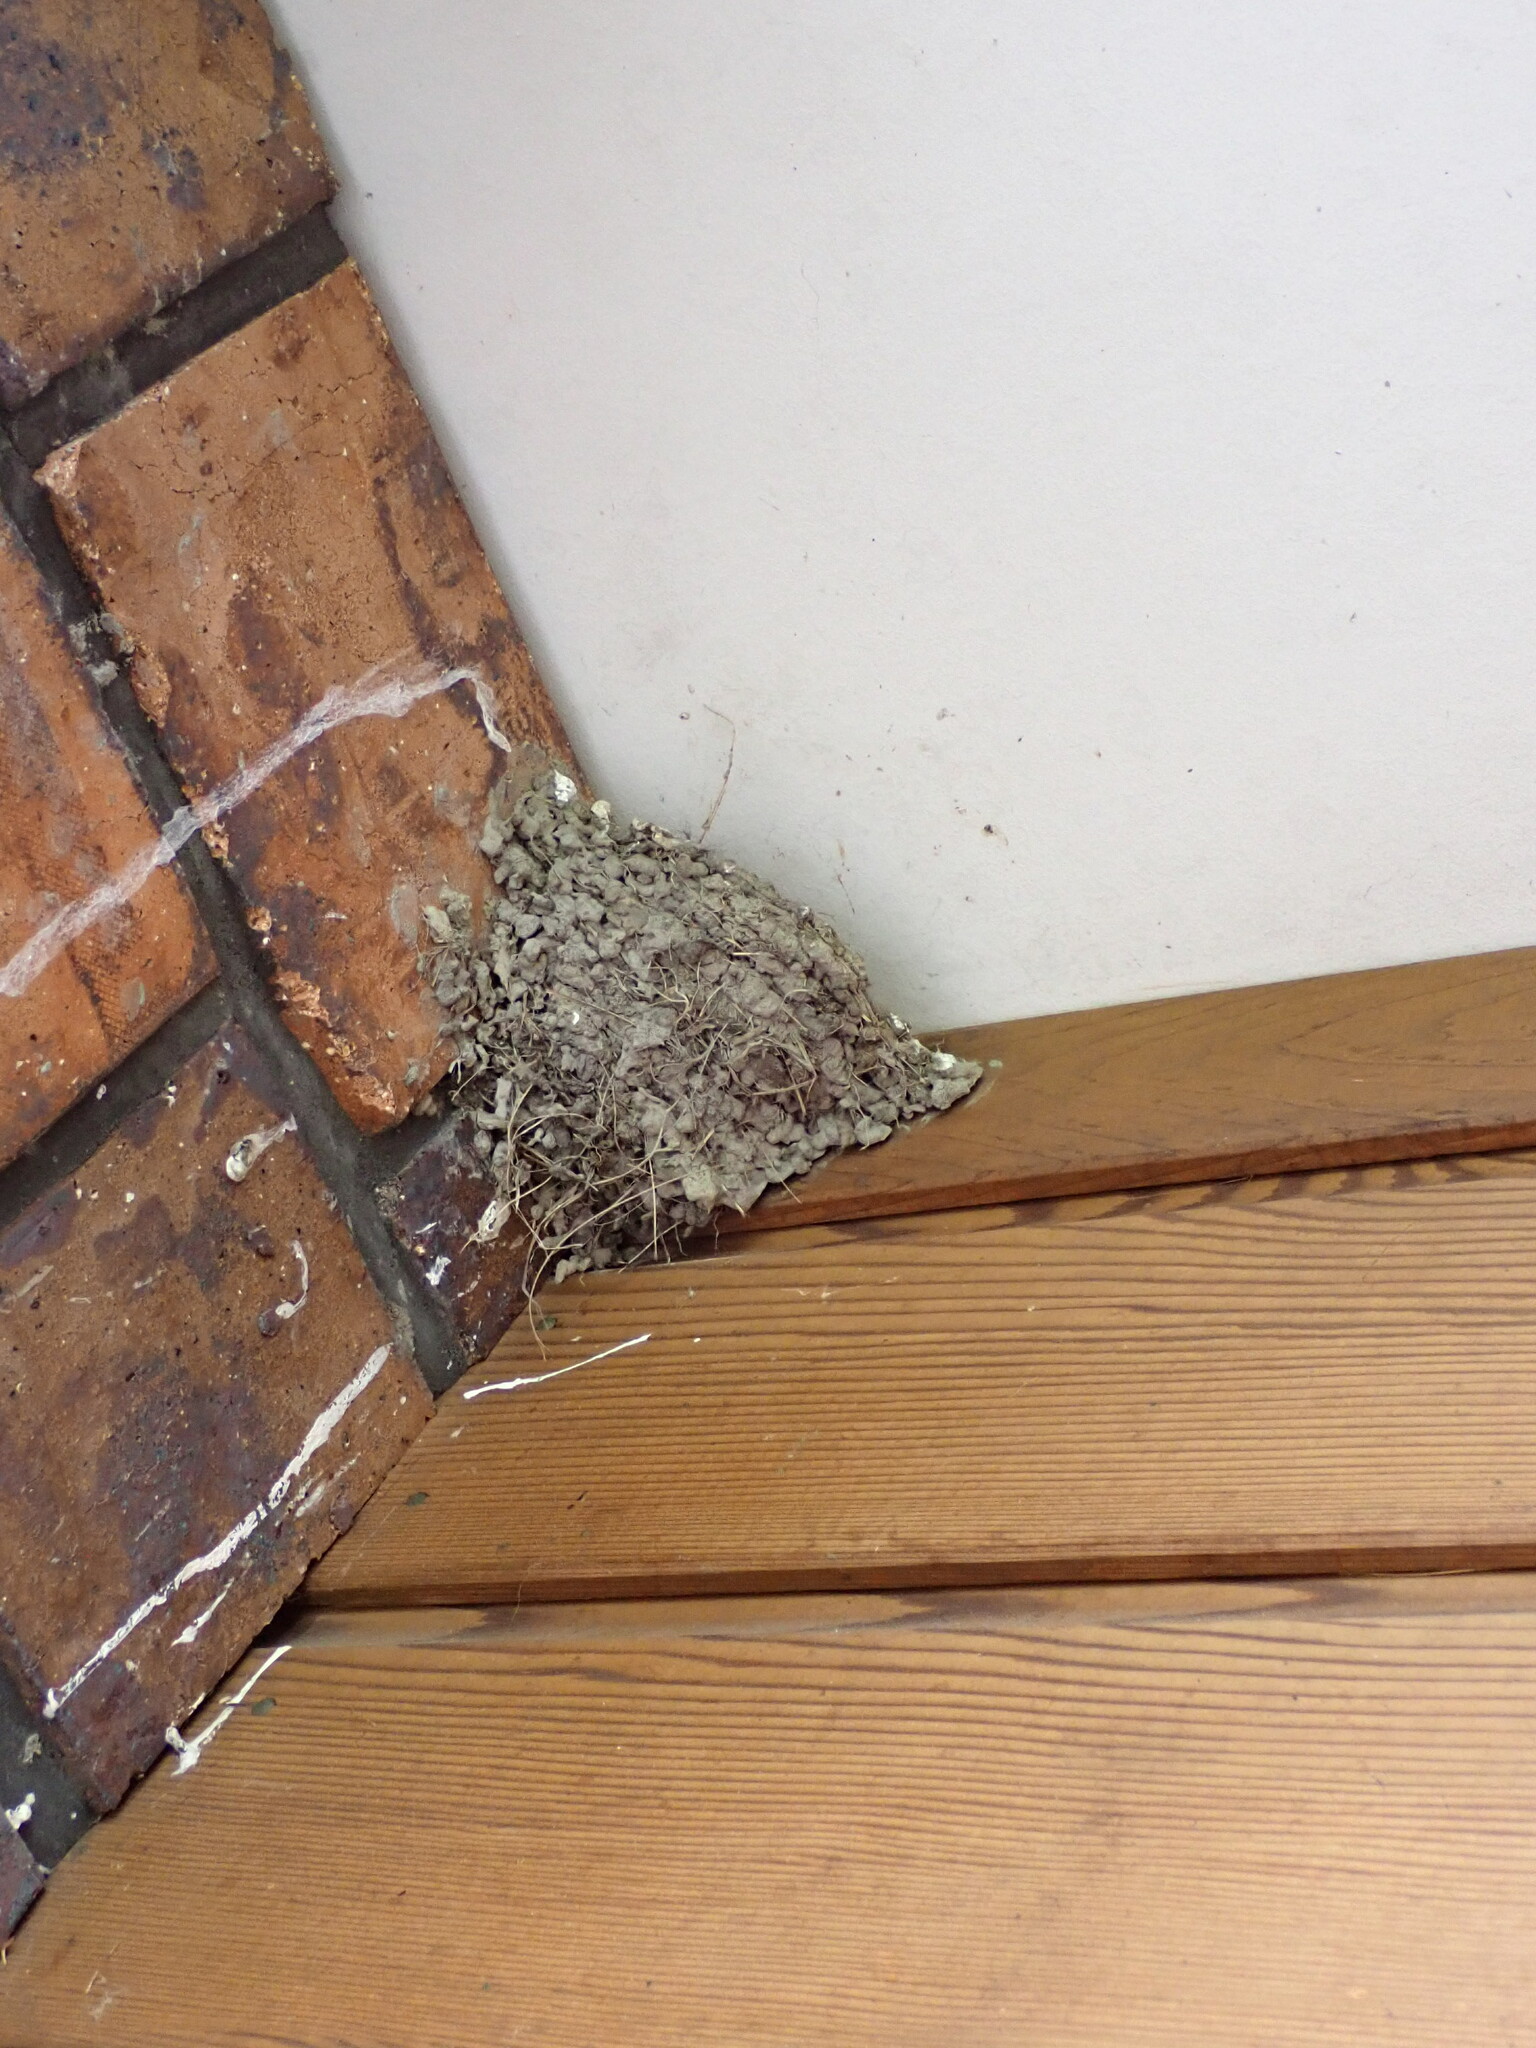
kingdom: Animalia
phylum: Chordata
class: Aves
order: Passeriformes
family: Hirundinidae
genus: Hirundo
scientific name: Hirundo neoxena
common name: Welcome swallow
